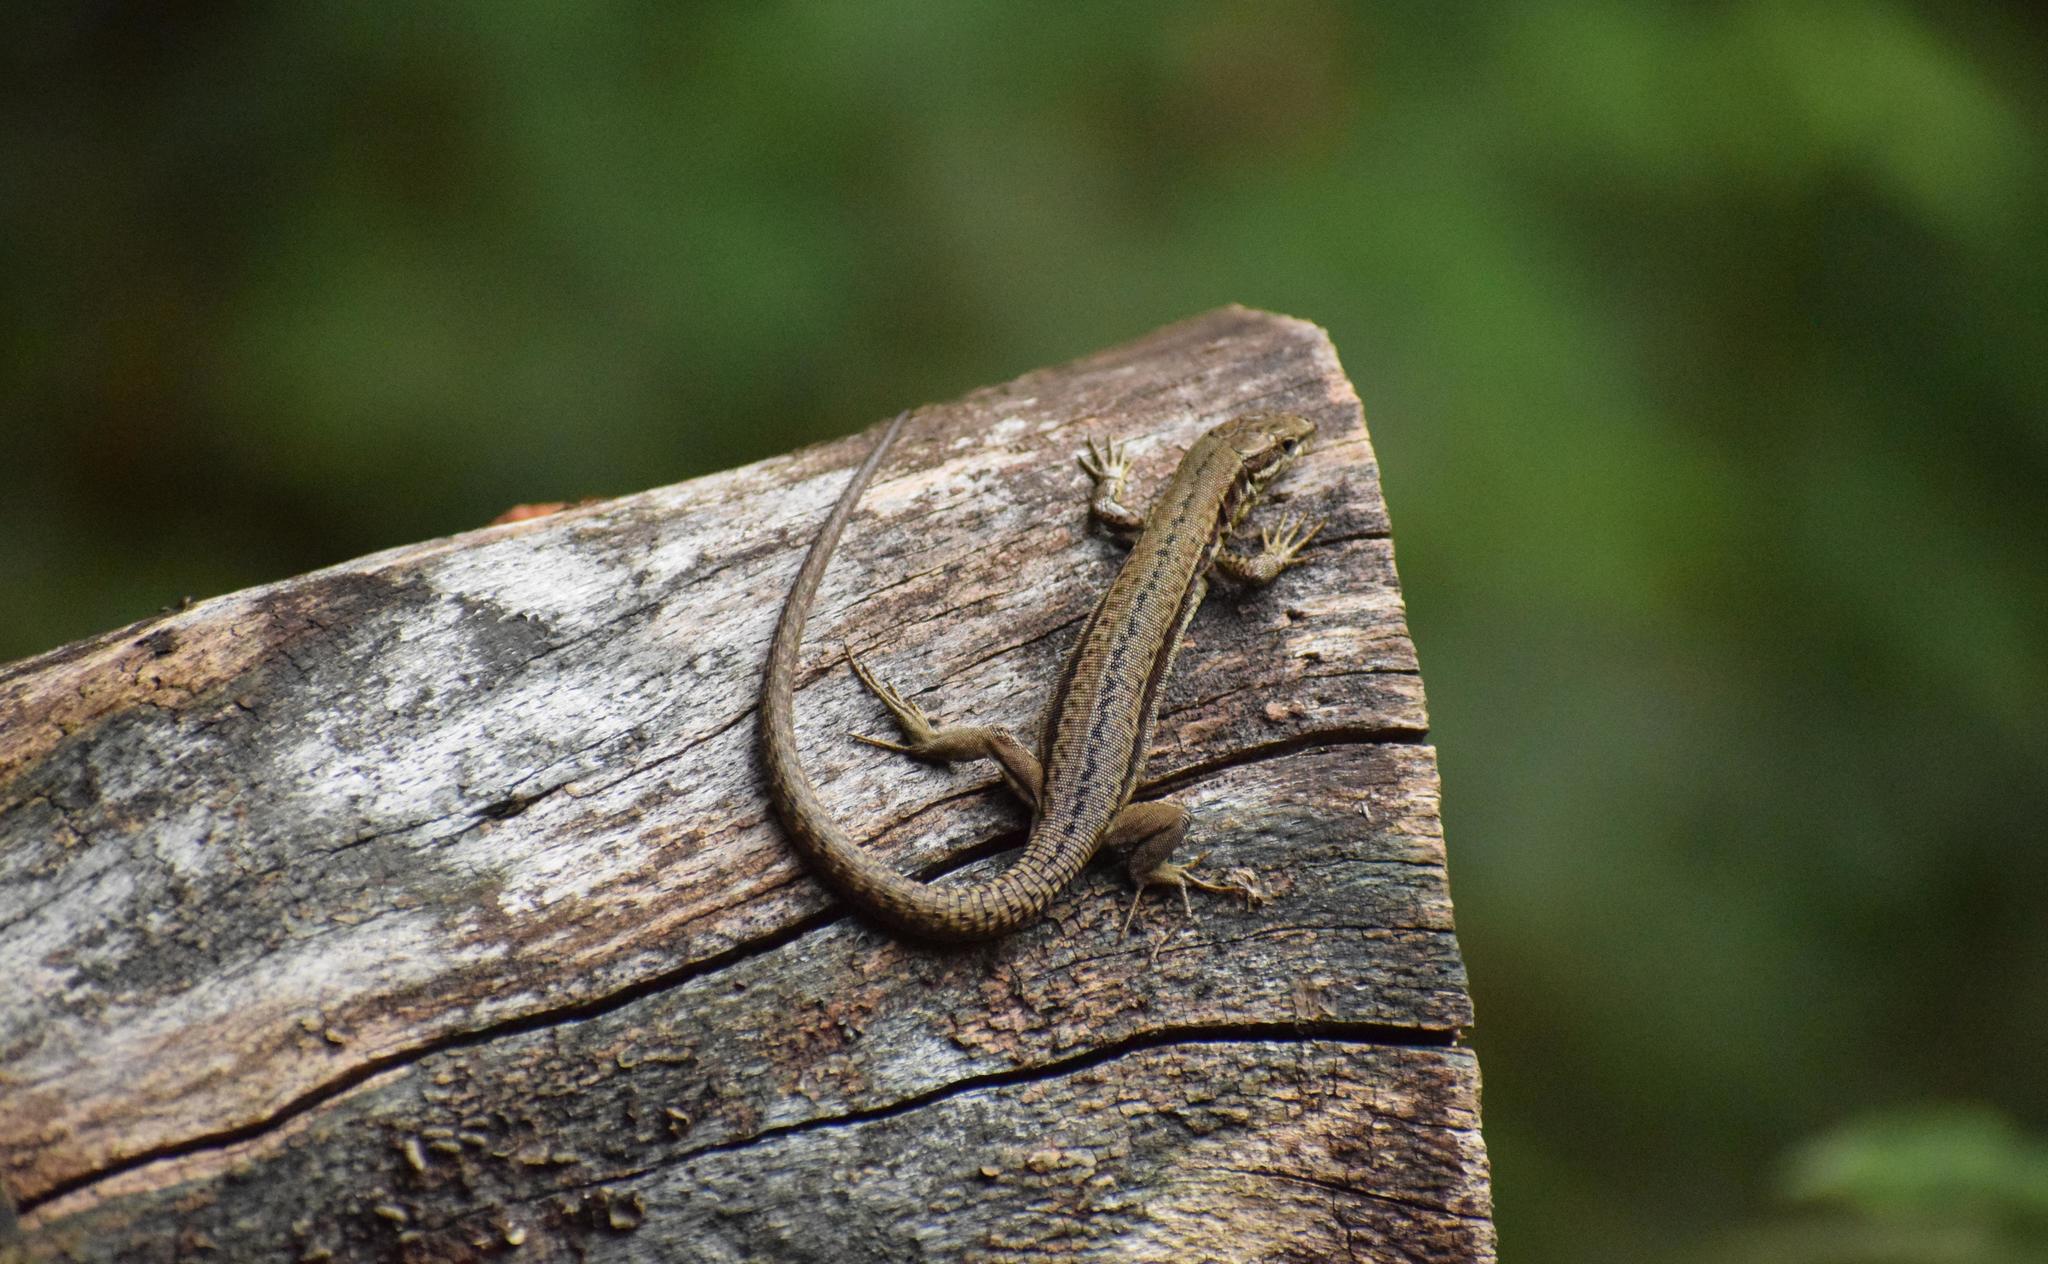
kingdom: Animalia
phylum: Chordata
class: Squamata
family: Lacertidae
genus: Podarcis
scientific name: Podarcis muralis
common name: Common wall lizard
